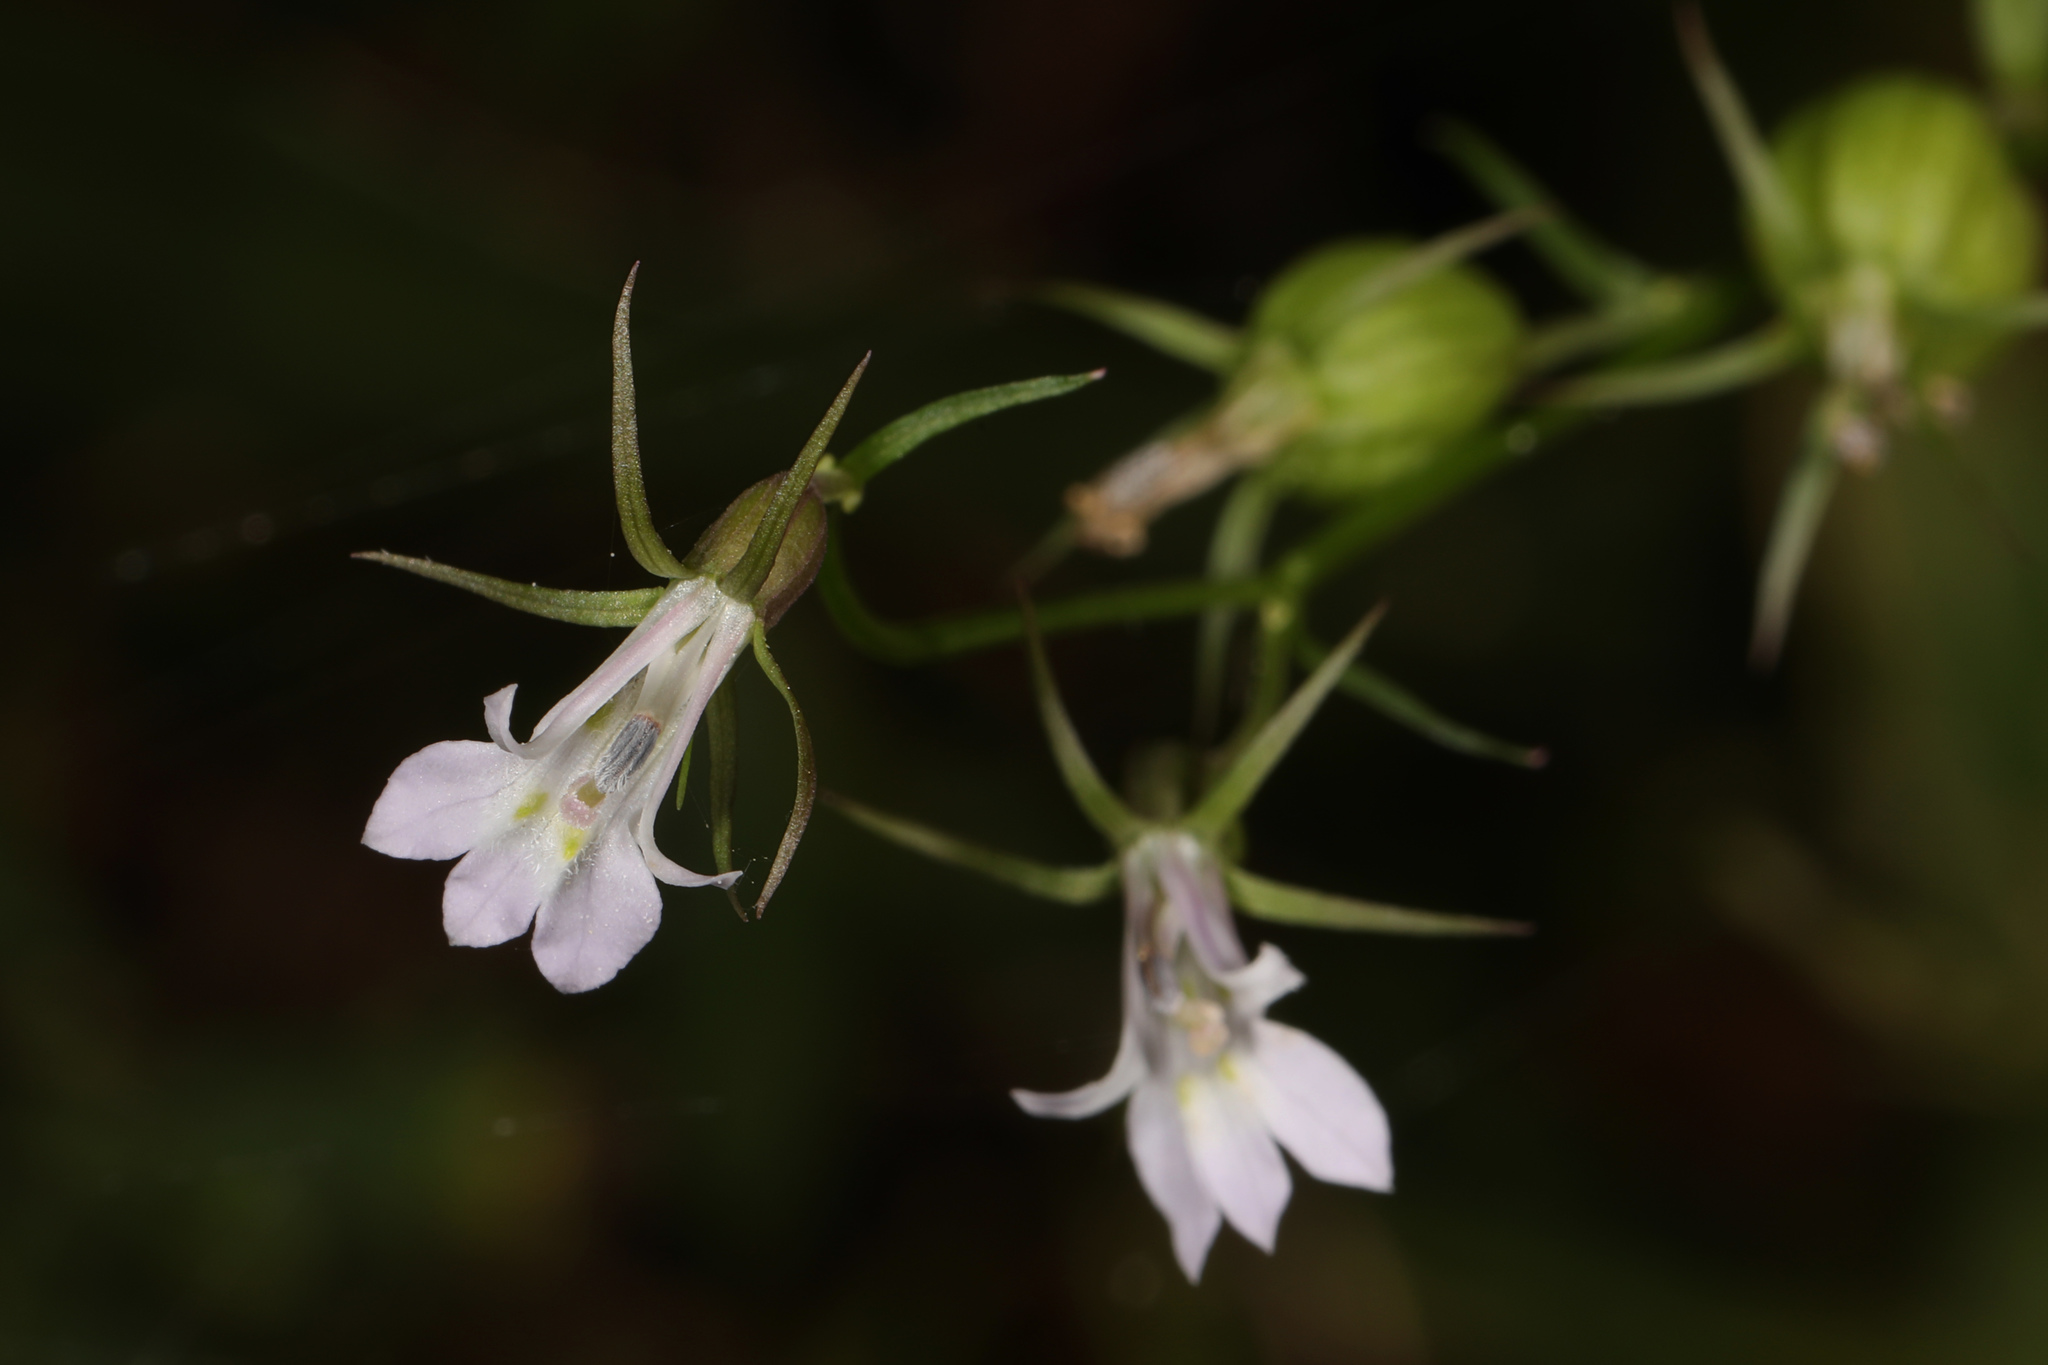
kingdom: Plantae
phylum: Tracheophyta
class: Magnoliopsida
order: Asterales
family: Campanulaceae
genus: Lobelia
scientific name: Lobelia inflata
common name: Indian tobacco
